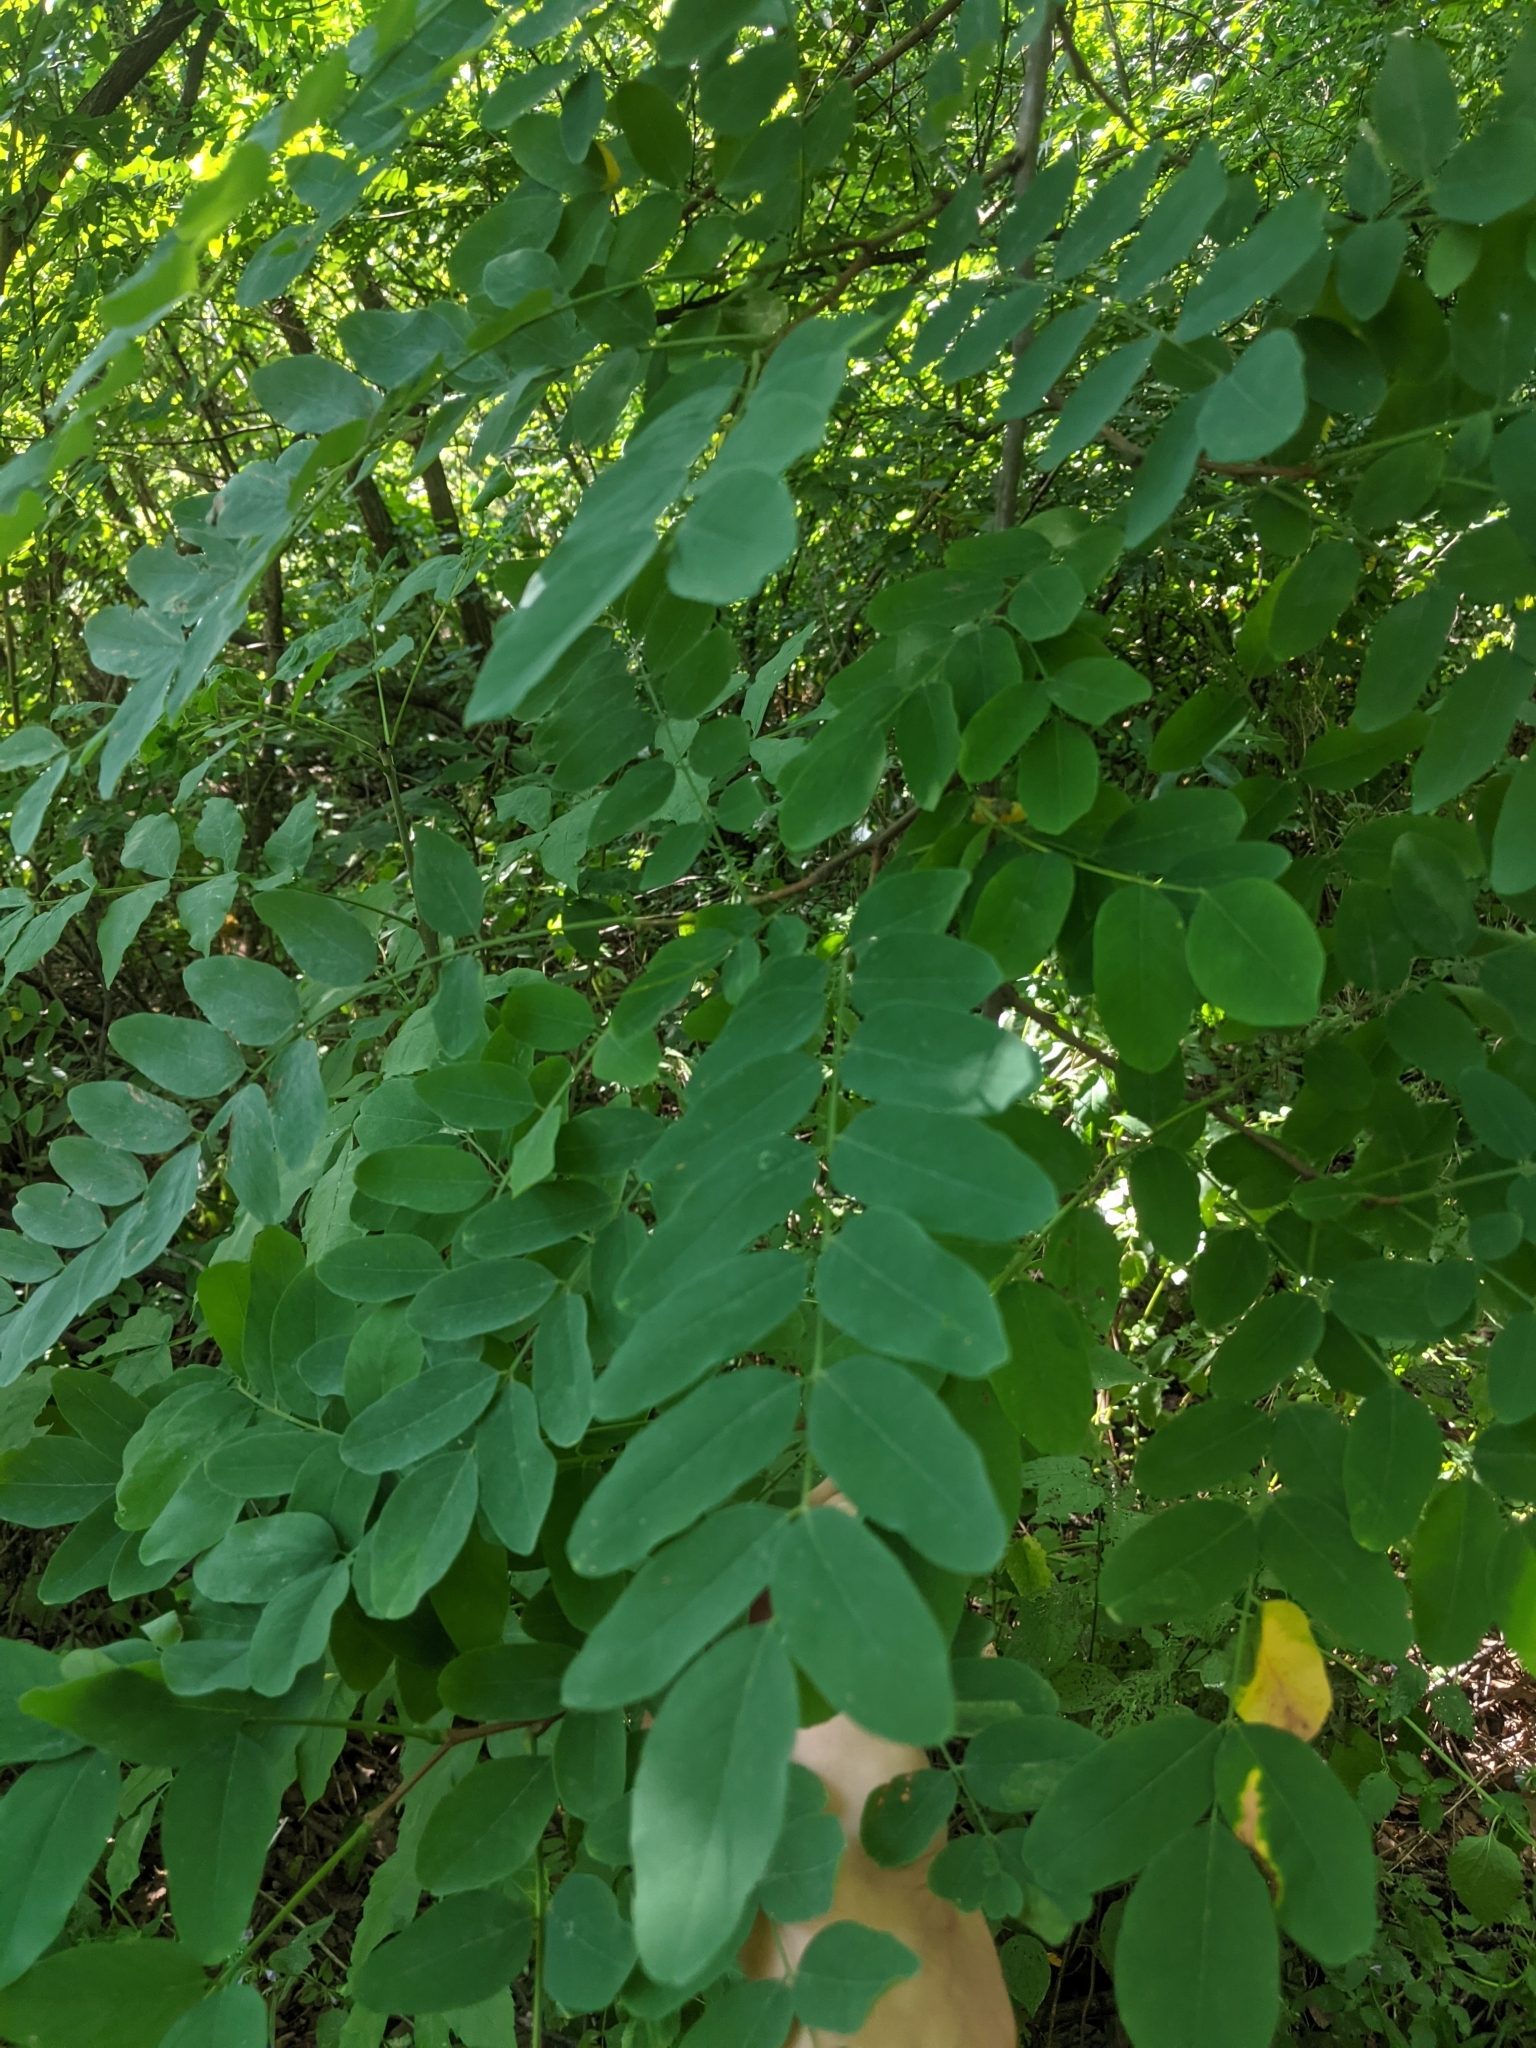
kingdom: Plantae
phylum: Tracheophyta
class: Magnoliopsida
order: Fabales
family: Fabaceae
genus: Robinia
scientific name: Robinia pseudoacacia
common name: Black locust
